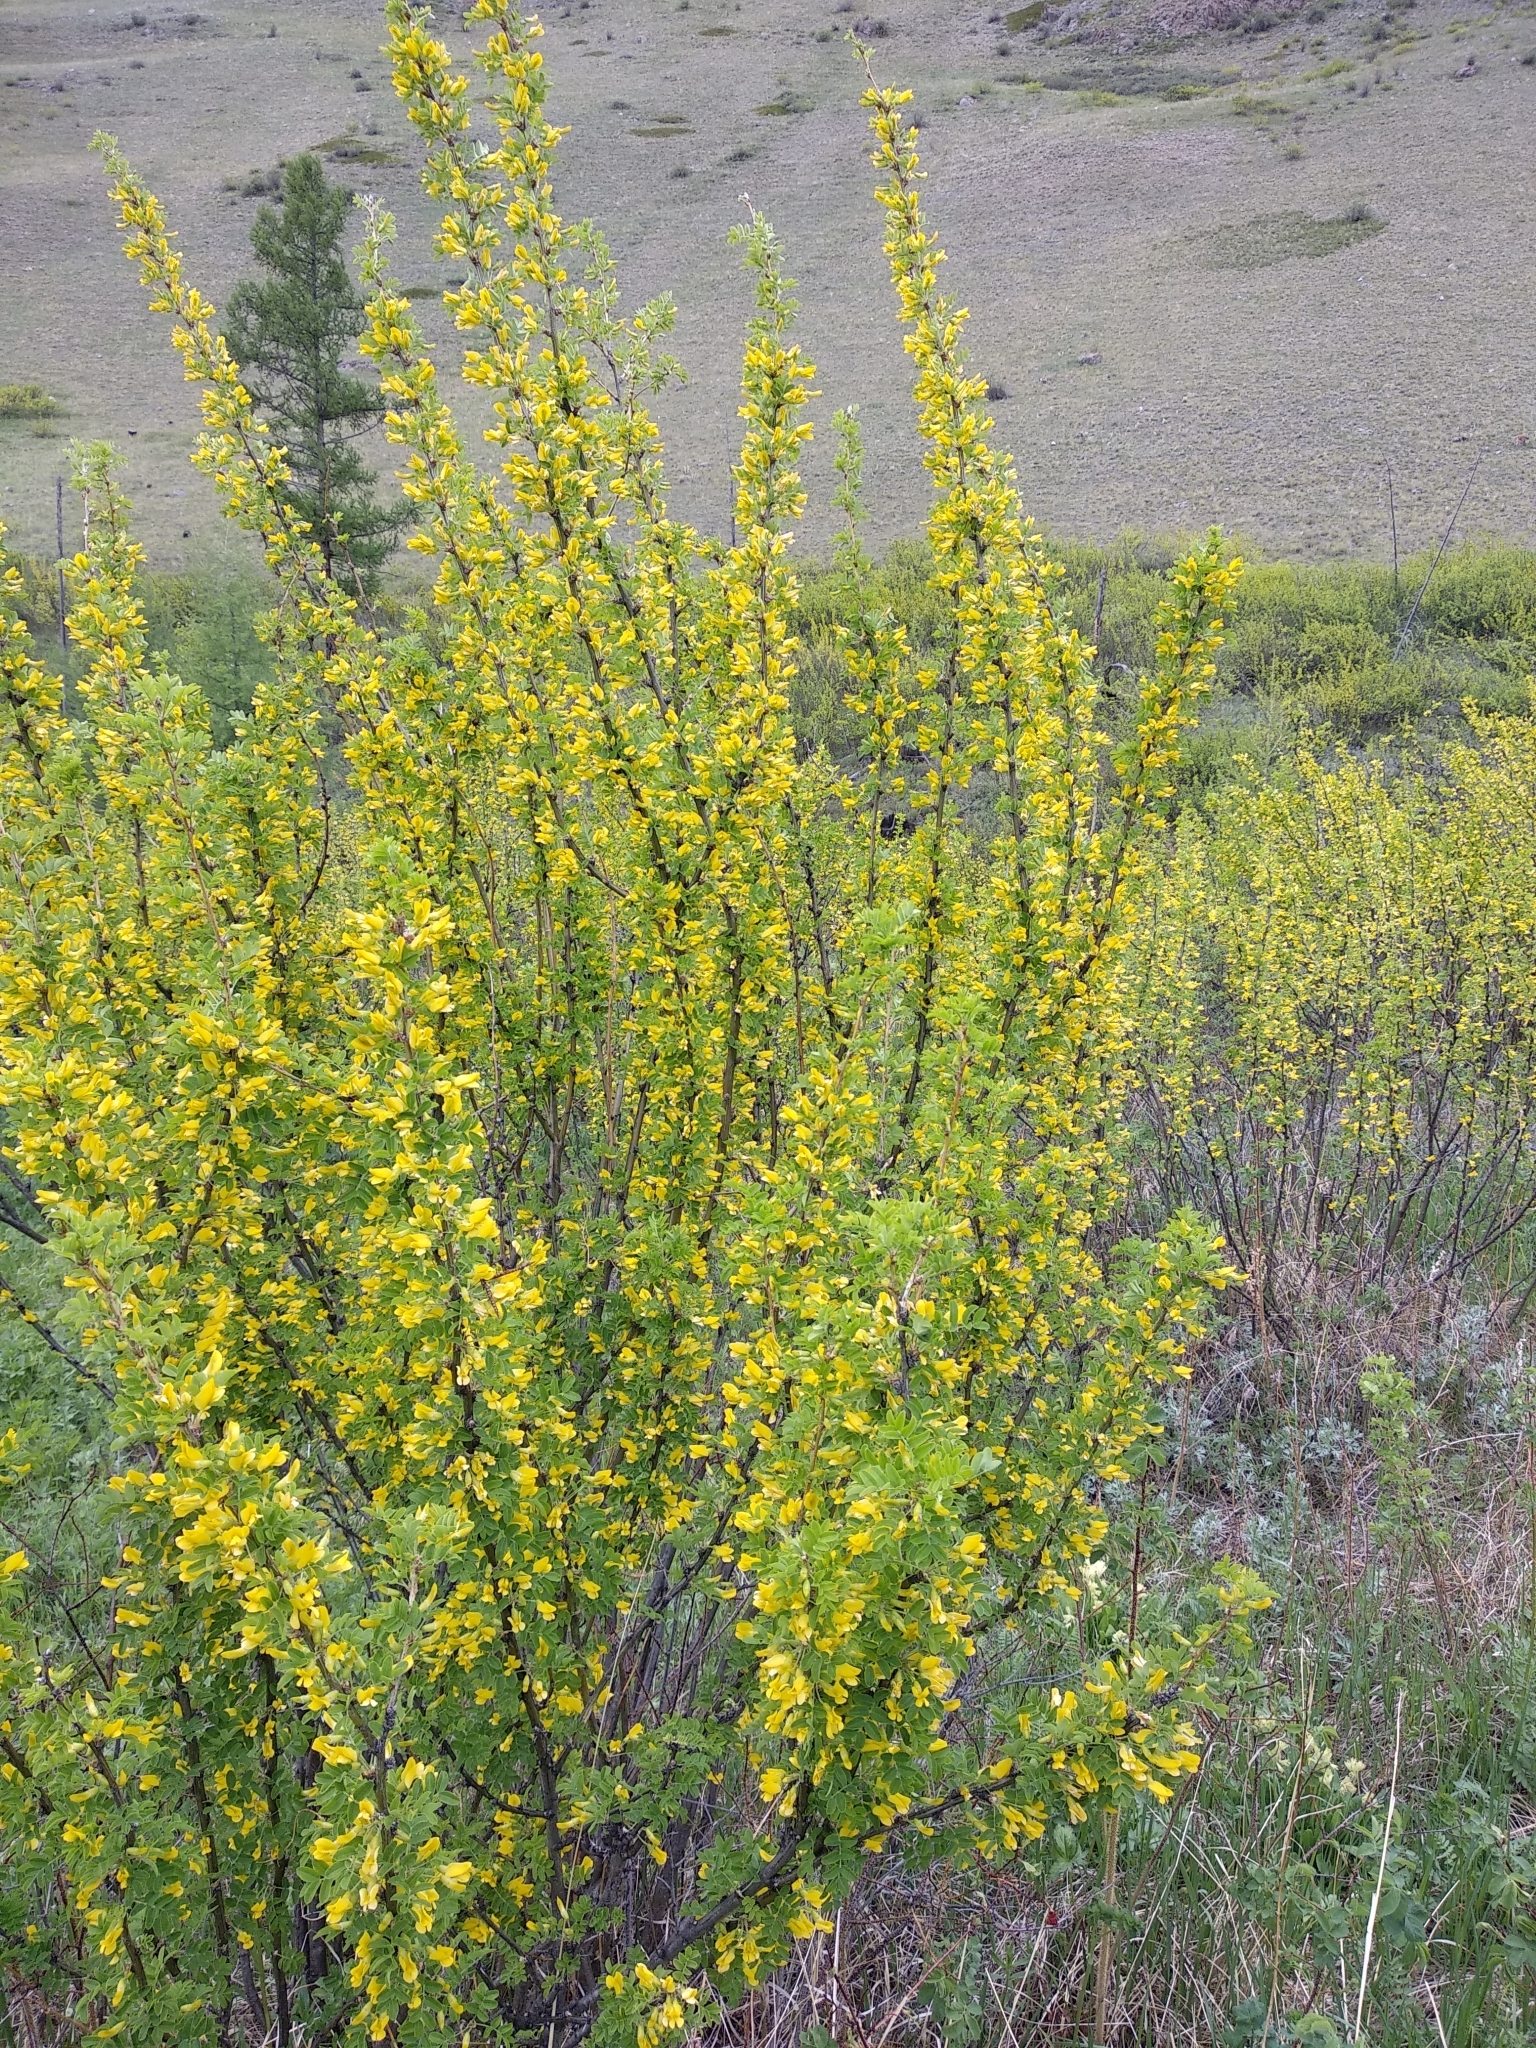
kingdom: Plantae
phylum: Tracheophyta
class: Magnoliopsida
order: Fabales
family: Fabaceae
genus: Caragana
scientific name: Caragana arborescens
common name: Siberian peashrub
